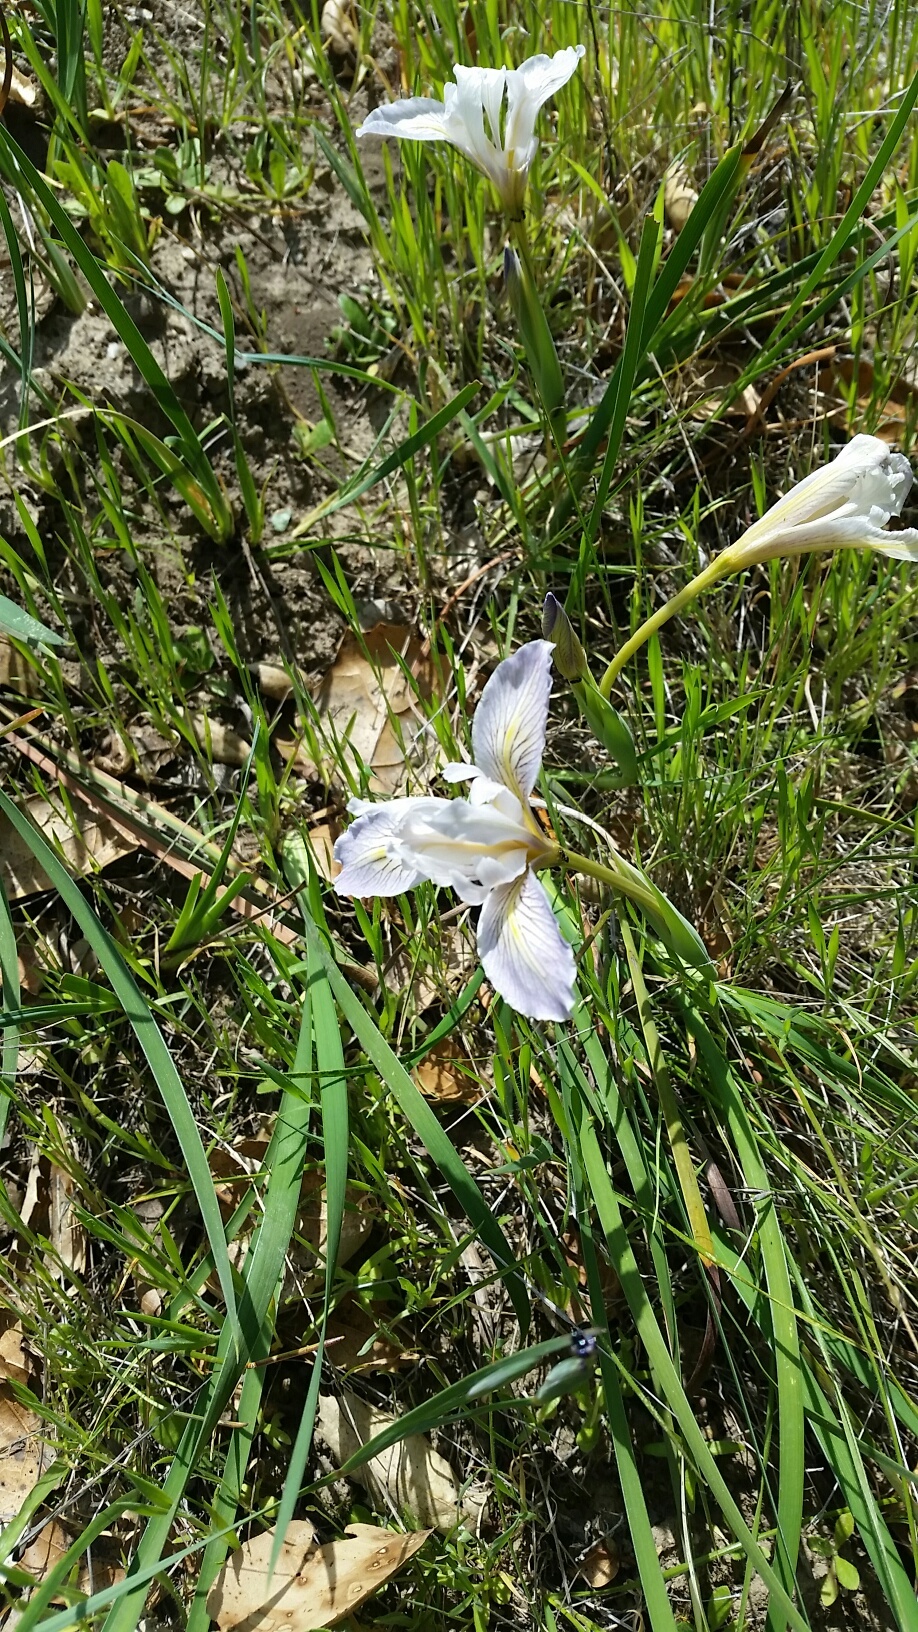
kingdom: Plantae
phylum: Tracheophyta
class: Liliopsida
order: Asparagales
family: Iridaceae
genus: Iris
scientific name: Iris macrosiphon
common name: Ground iris
